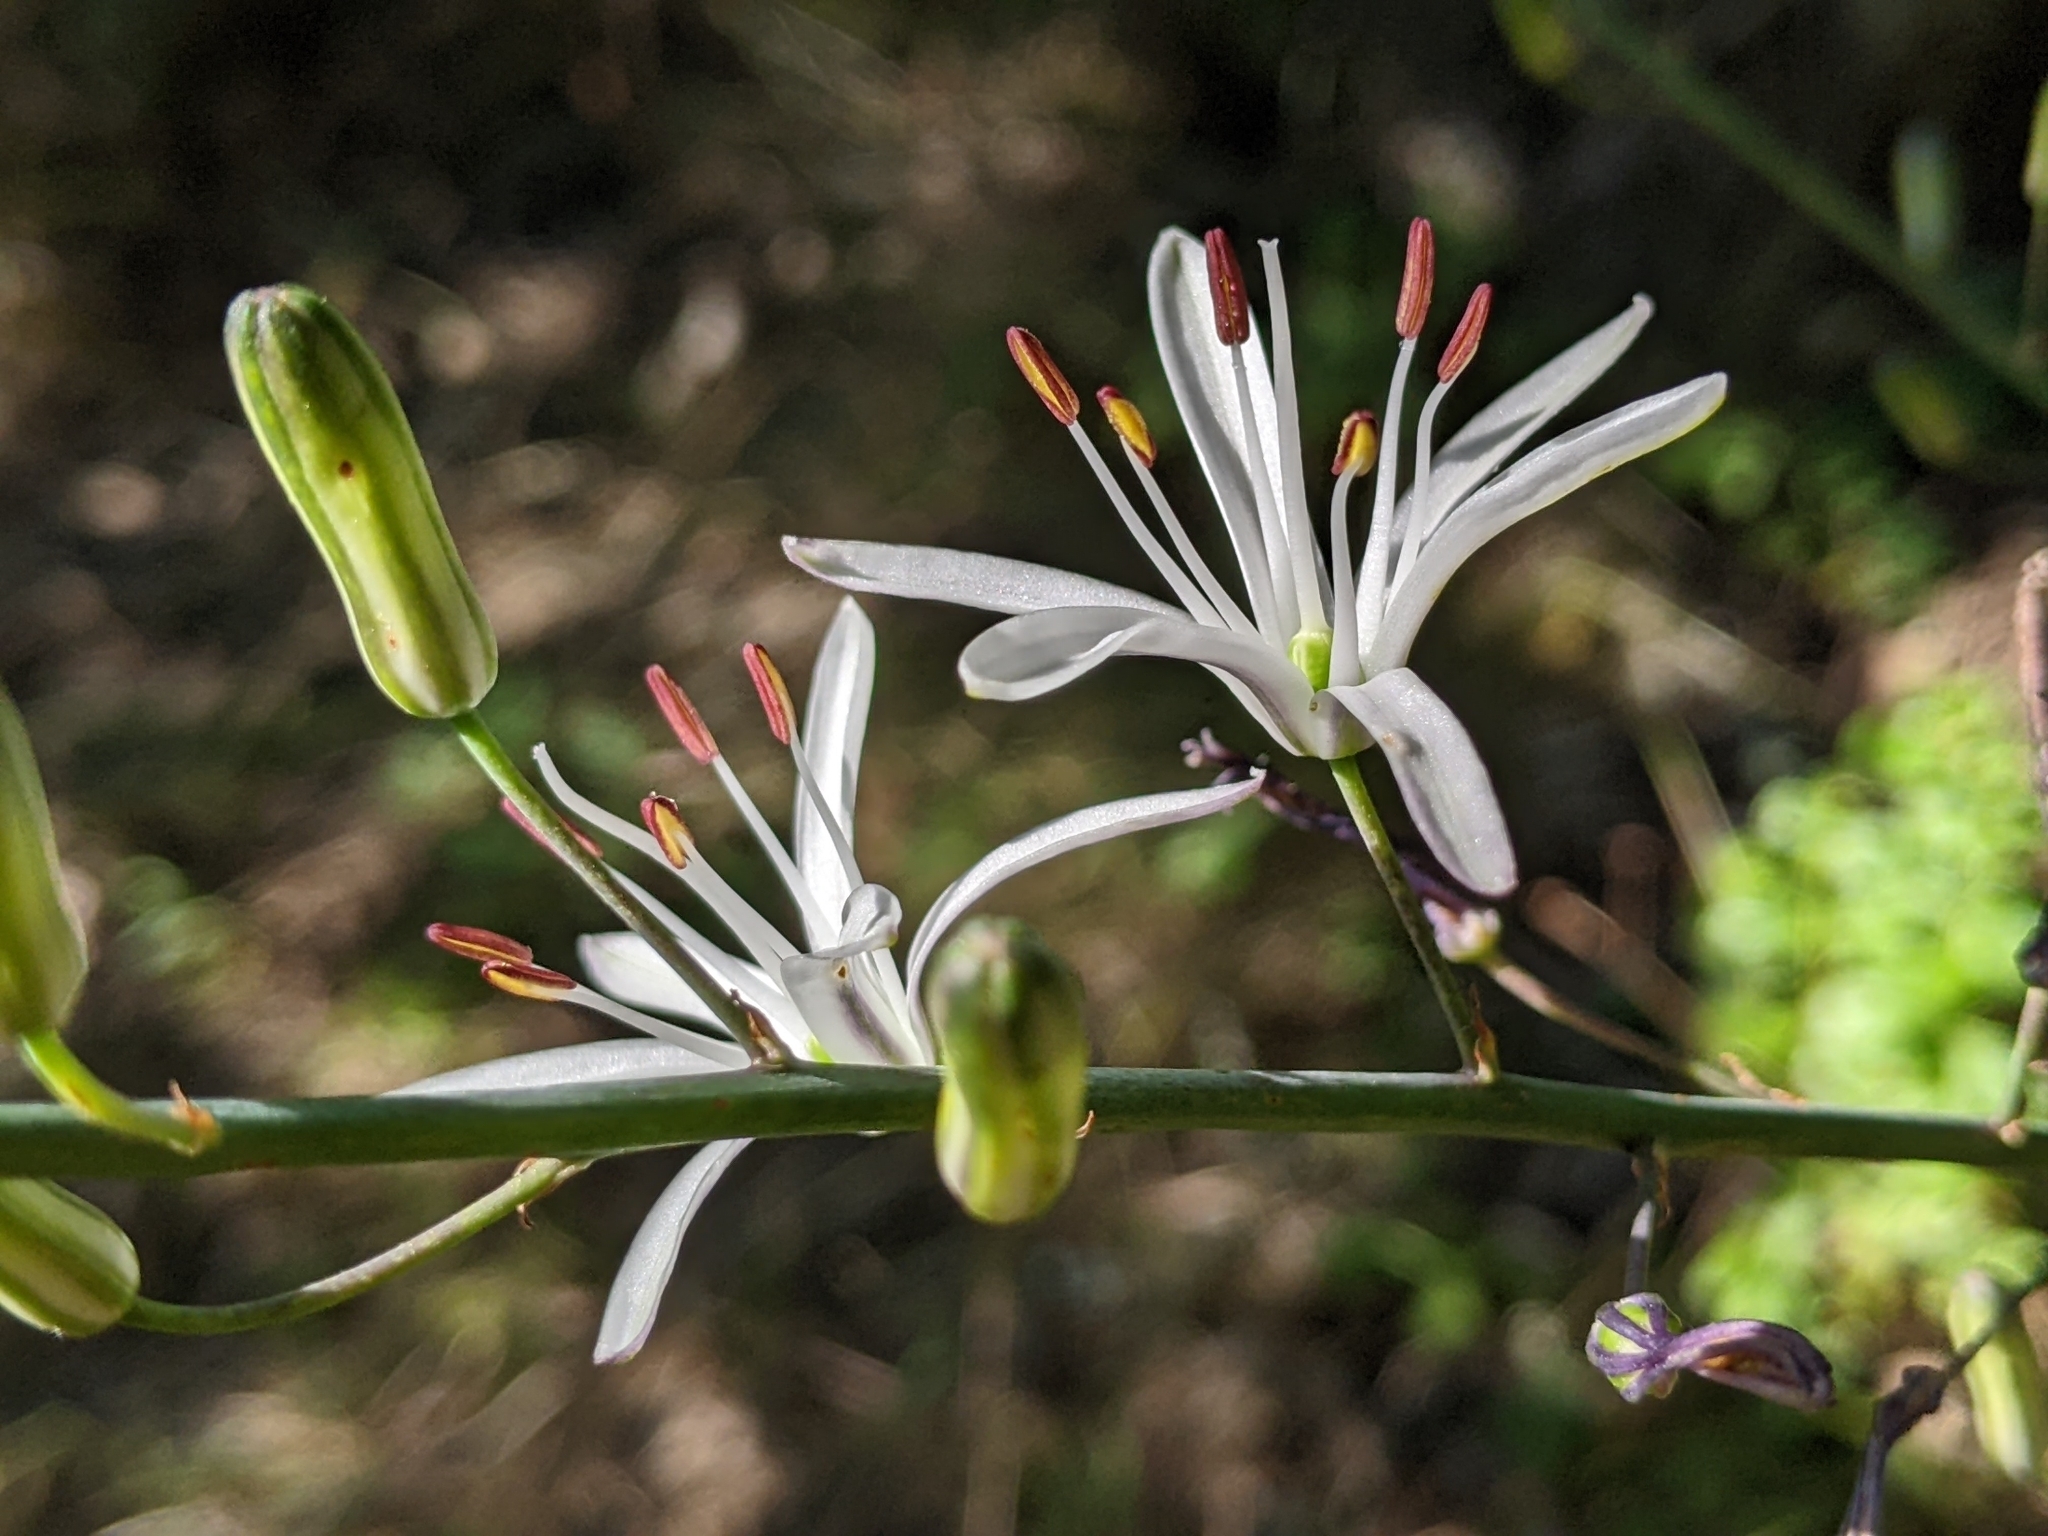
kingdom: Plantae
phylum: Tracheophyta
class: Liliopsida
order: Asparagales
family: Asparagaceae
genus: Chlorogalum
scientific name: Chlorogalum pomeridianum
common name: Amole
